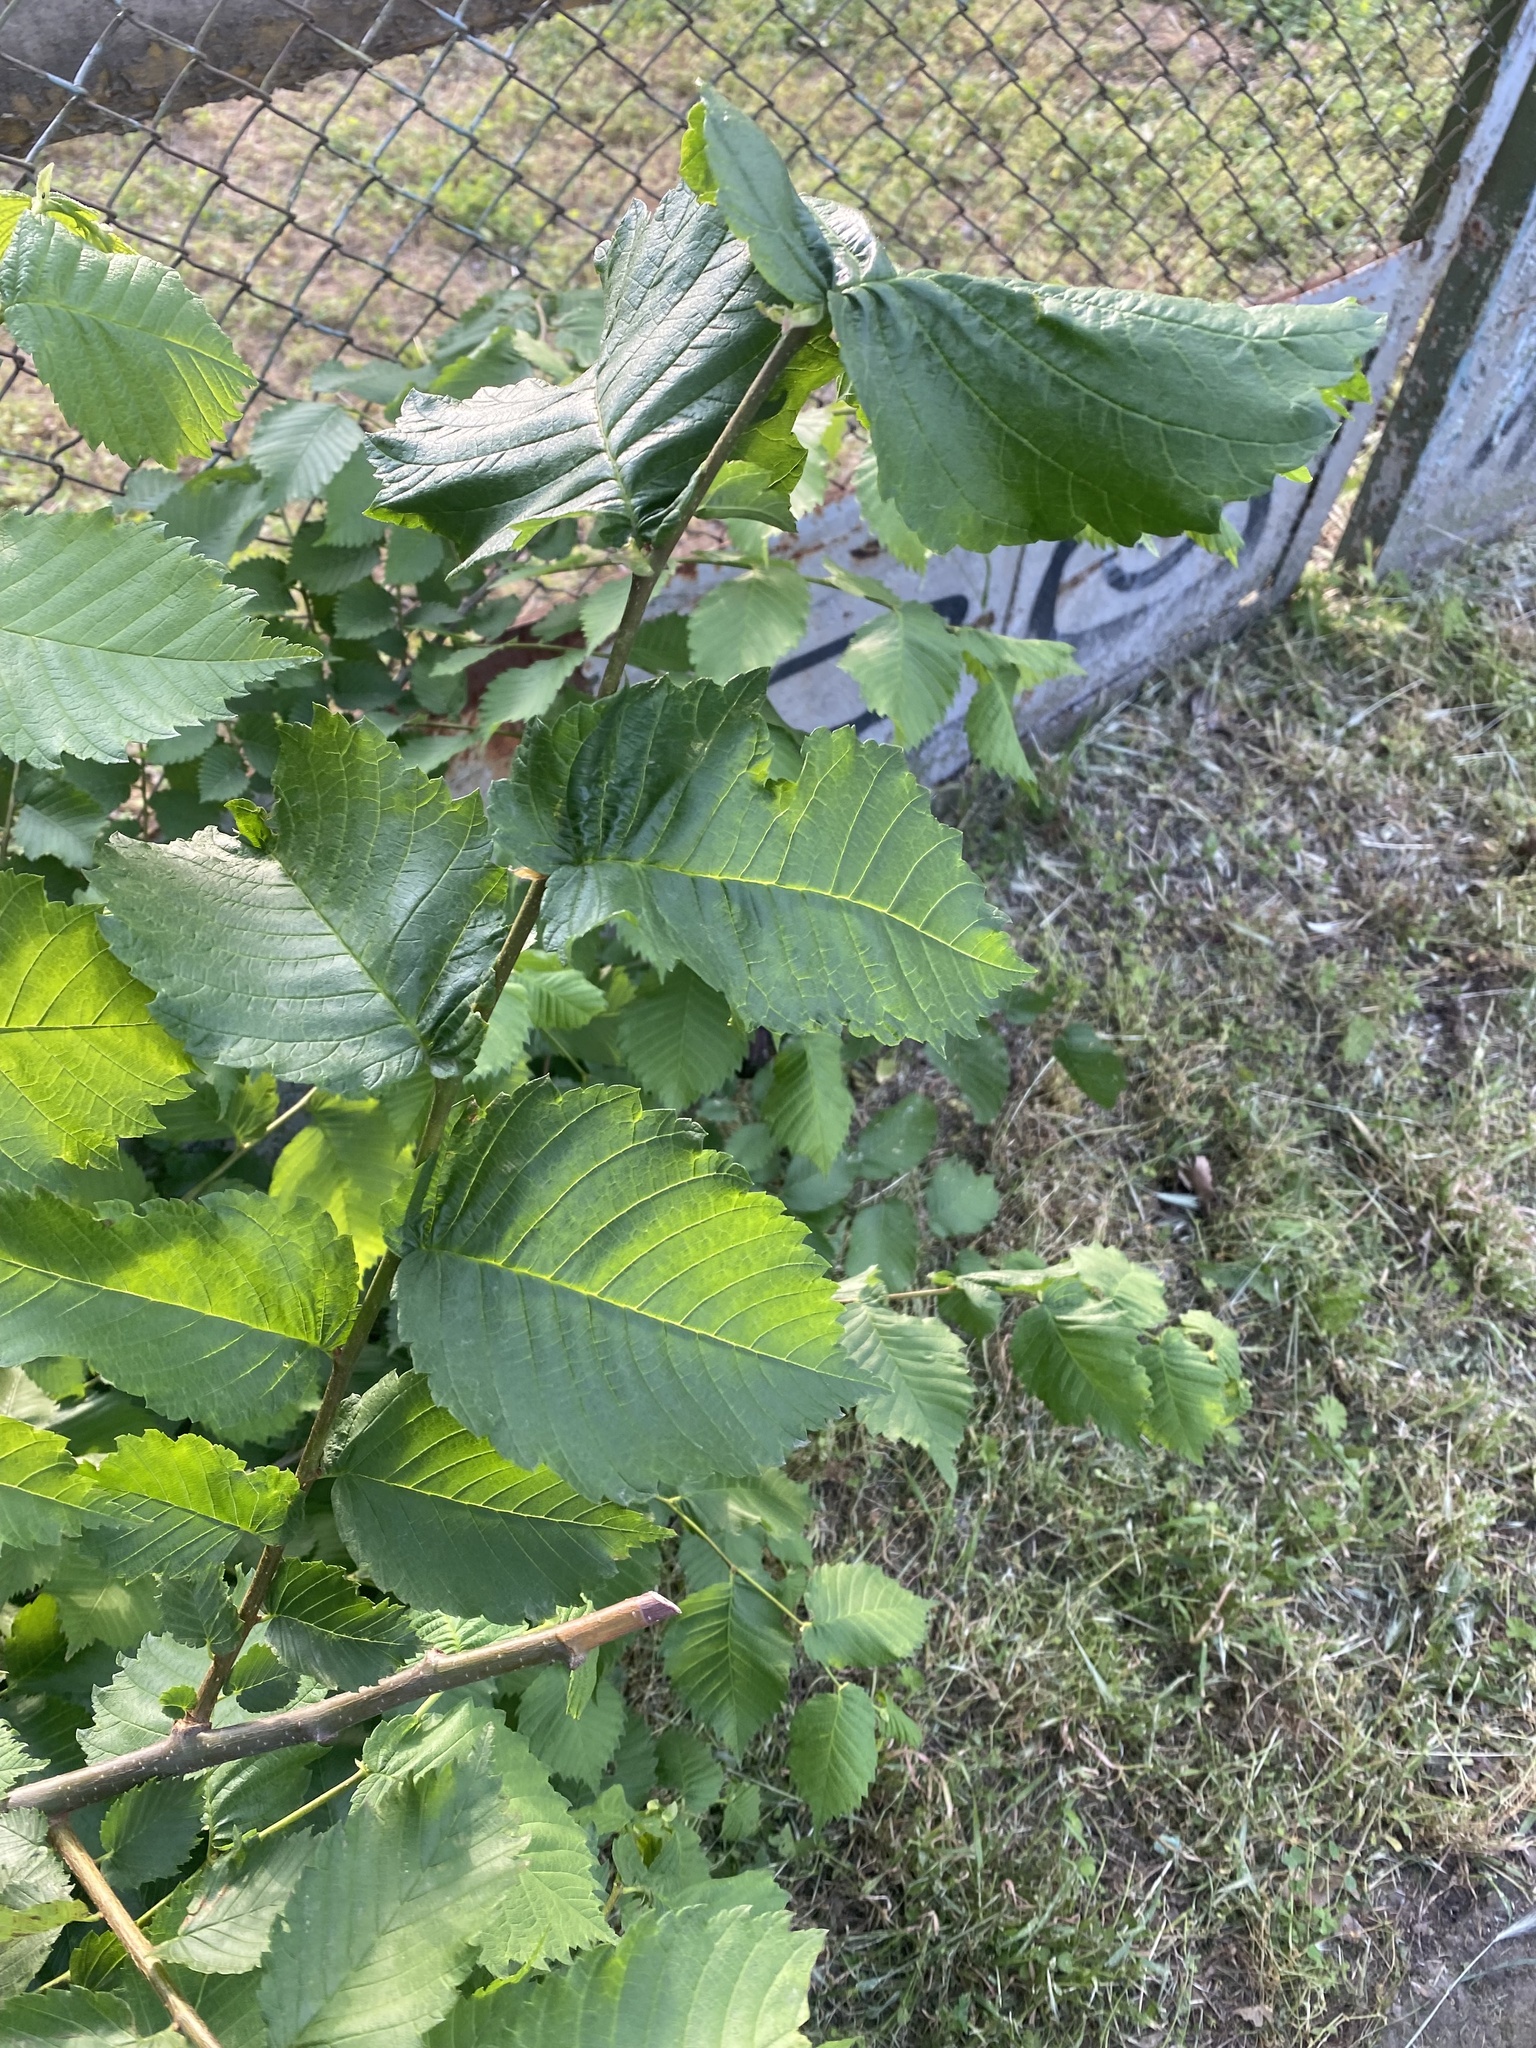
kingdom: Plantae
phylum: Tracheophyta
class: Magnoliopsida
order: Rosales
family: Ulmaceae
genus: Ulmus
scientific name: Ulmus laevis
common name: European white-elm
